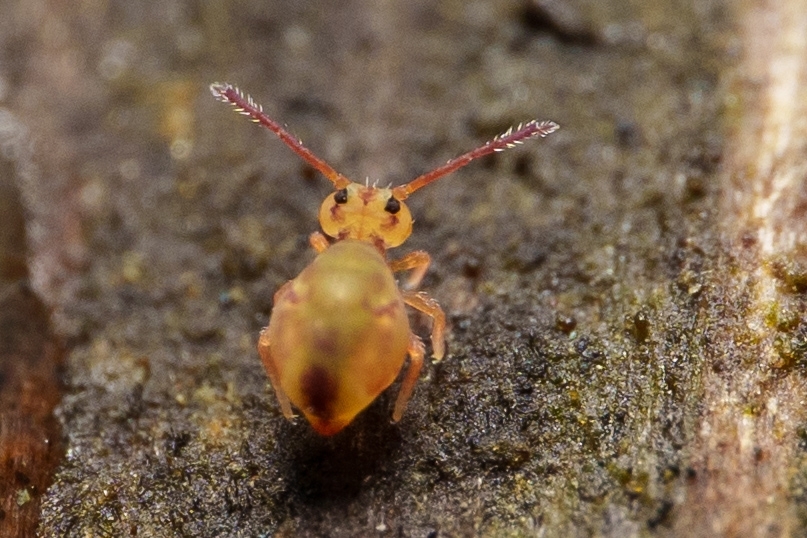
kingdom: Animalia
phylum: Arthropoda
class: Collembola
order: Symphypleona
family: Dicyrtomidae
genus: Dicyrtomina
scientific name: Dicyrtomina minuta
